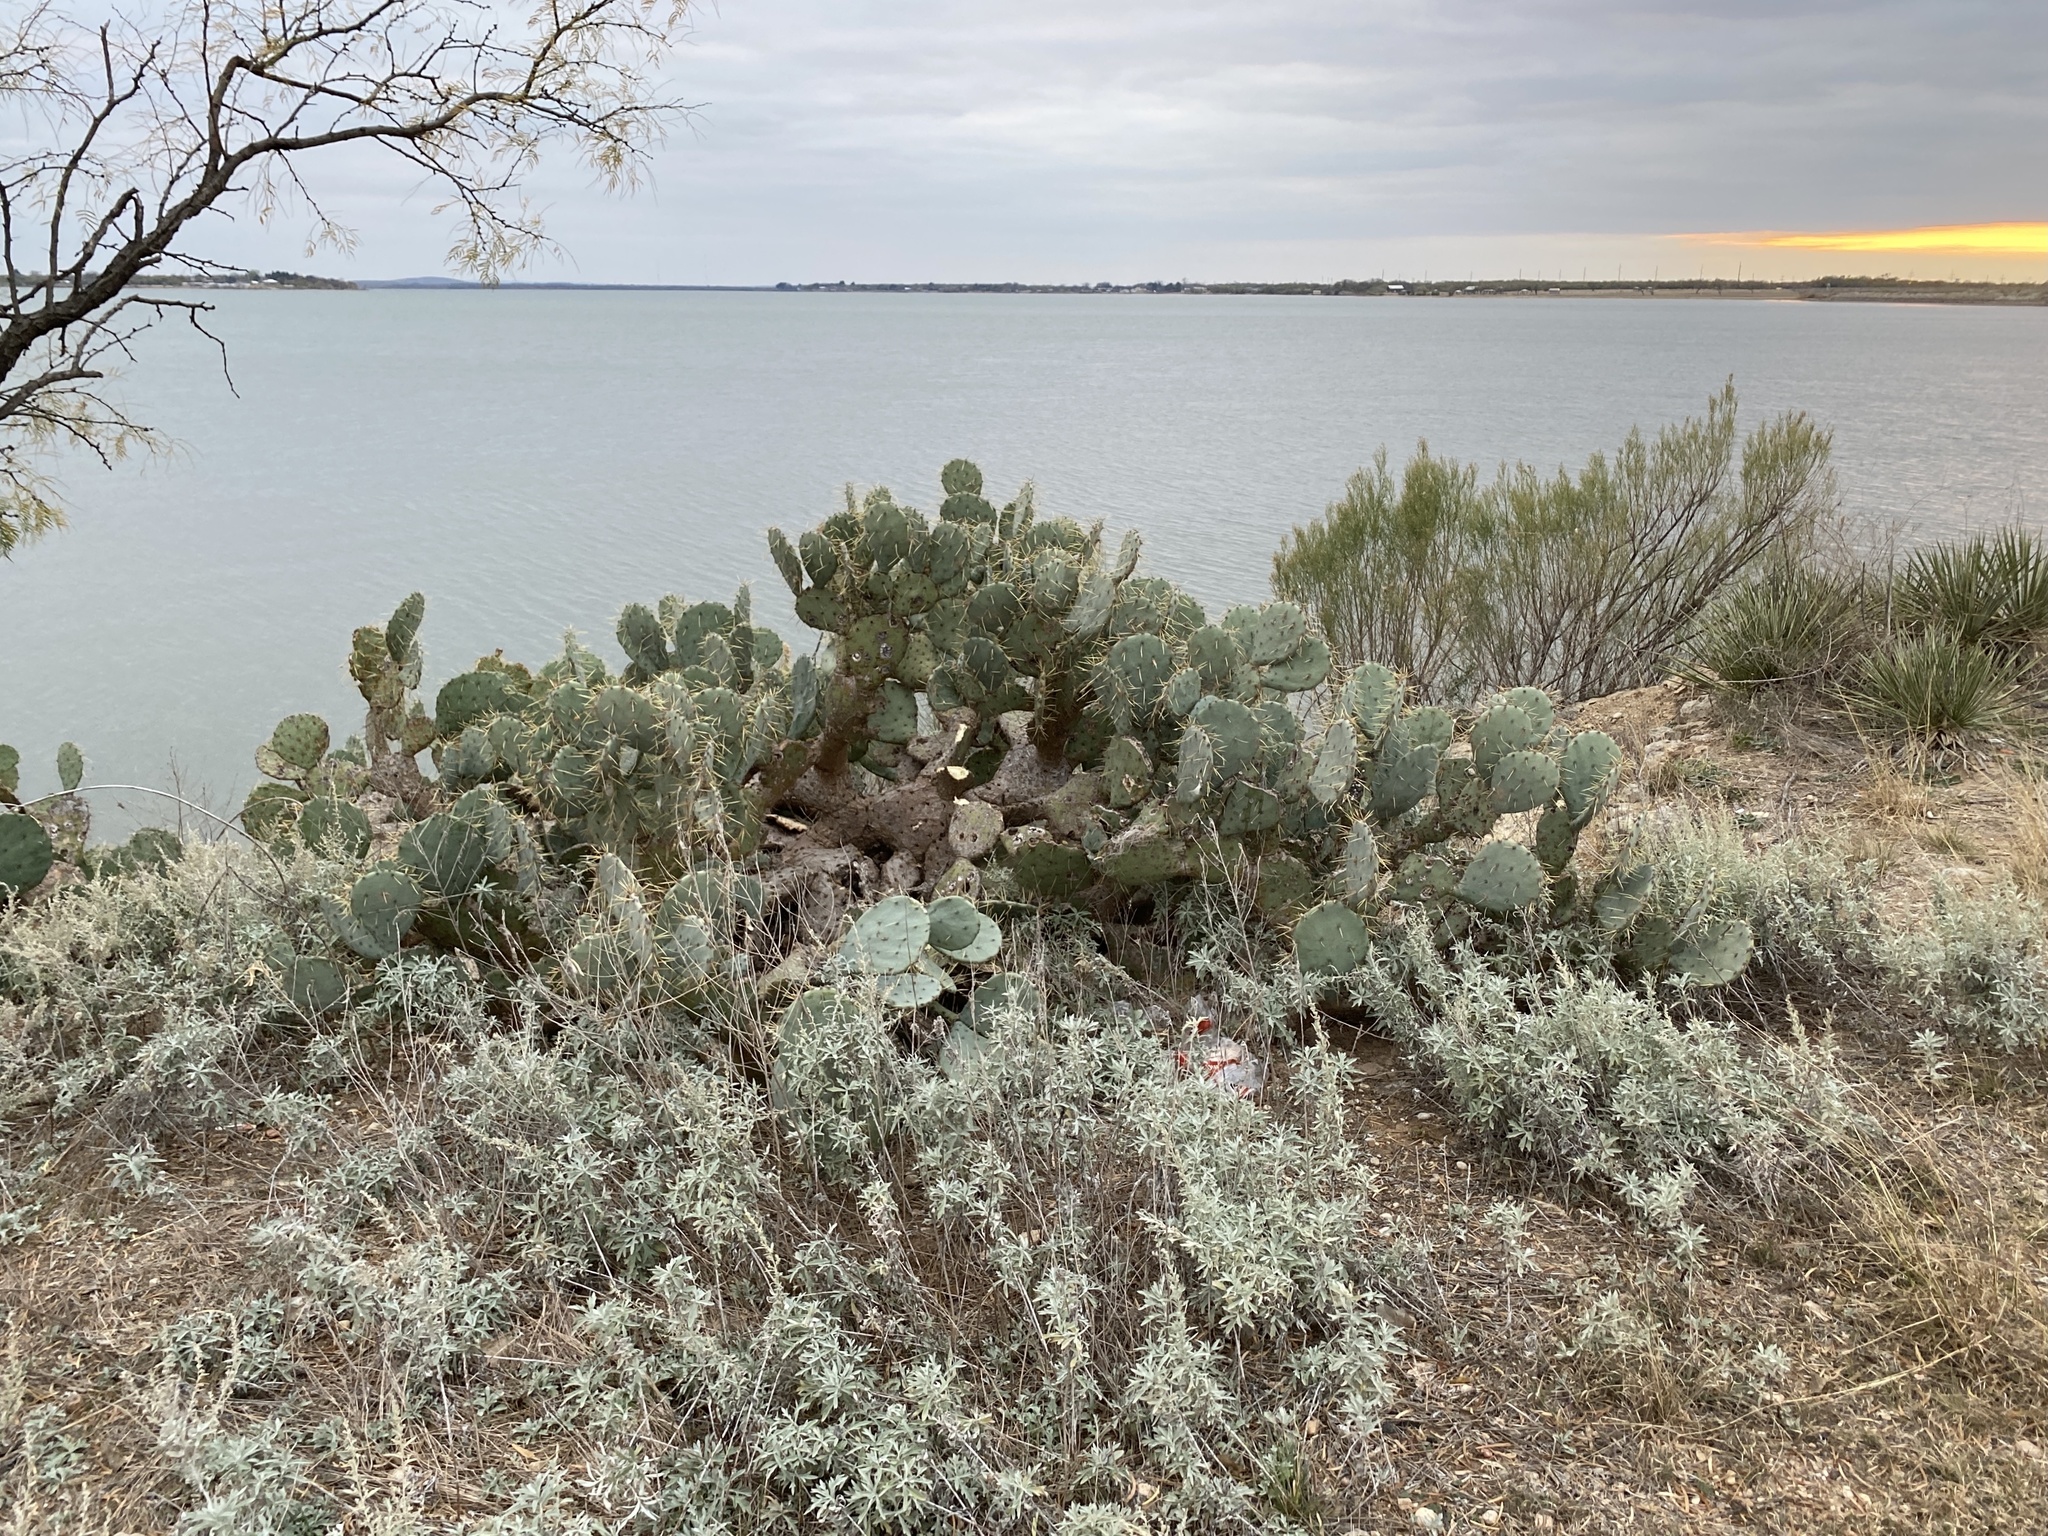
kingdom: Plantae
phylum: Tracheophyta
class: Magnoliopsida
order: Caryophyllales
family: Cactaceae
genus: Opuntia
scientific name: Opuntia engelmannii
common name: Cactus-apple
